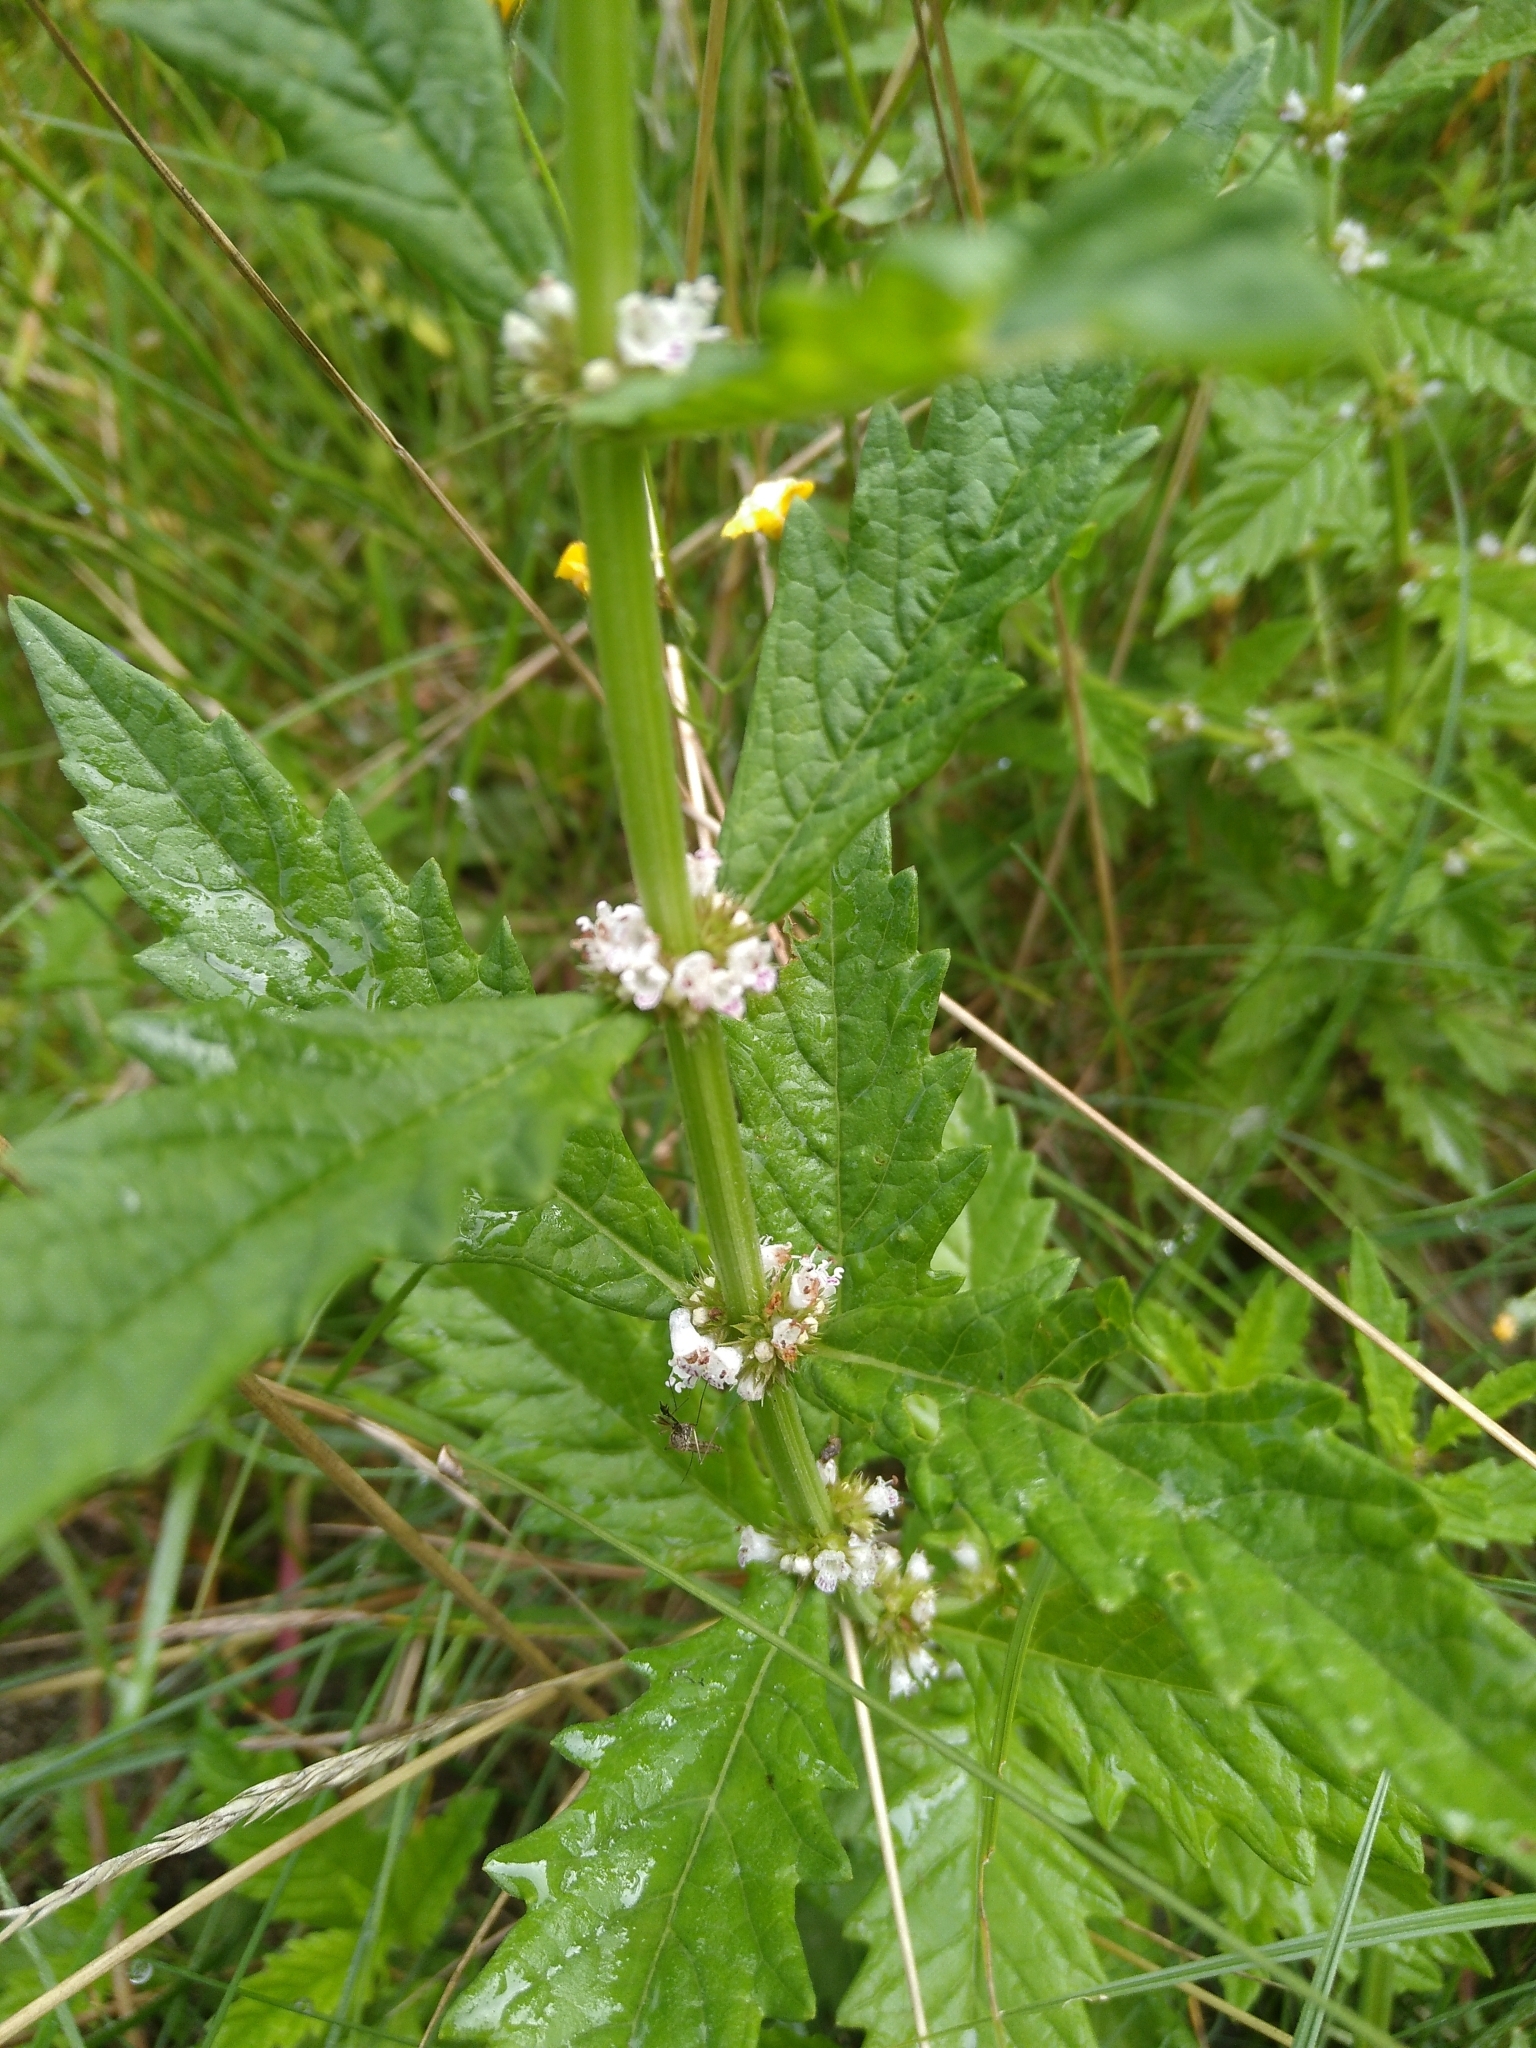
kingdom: Plantae
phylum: Tracheophyta
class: Magnoliopsida
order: Lamiales
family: Lamiaceae
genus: Lycopus
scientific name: Lycopus europaeus
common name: European bugleweed
